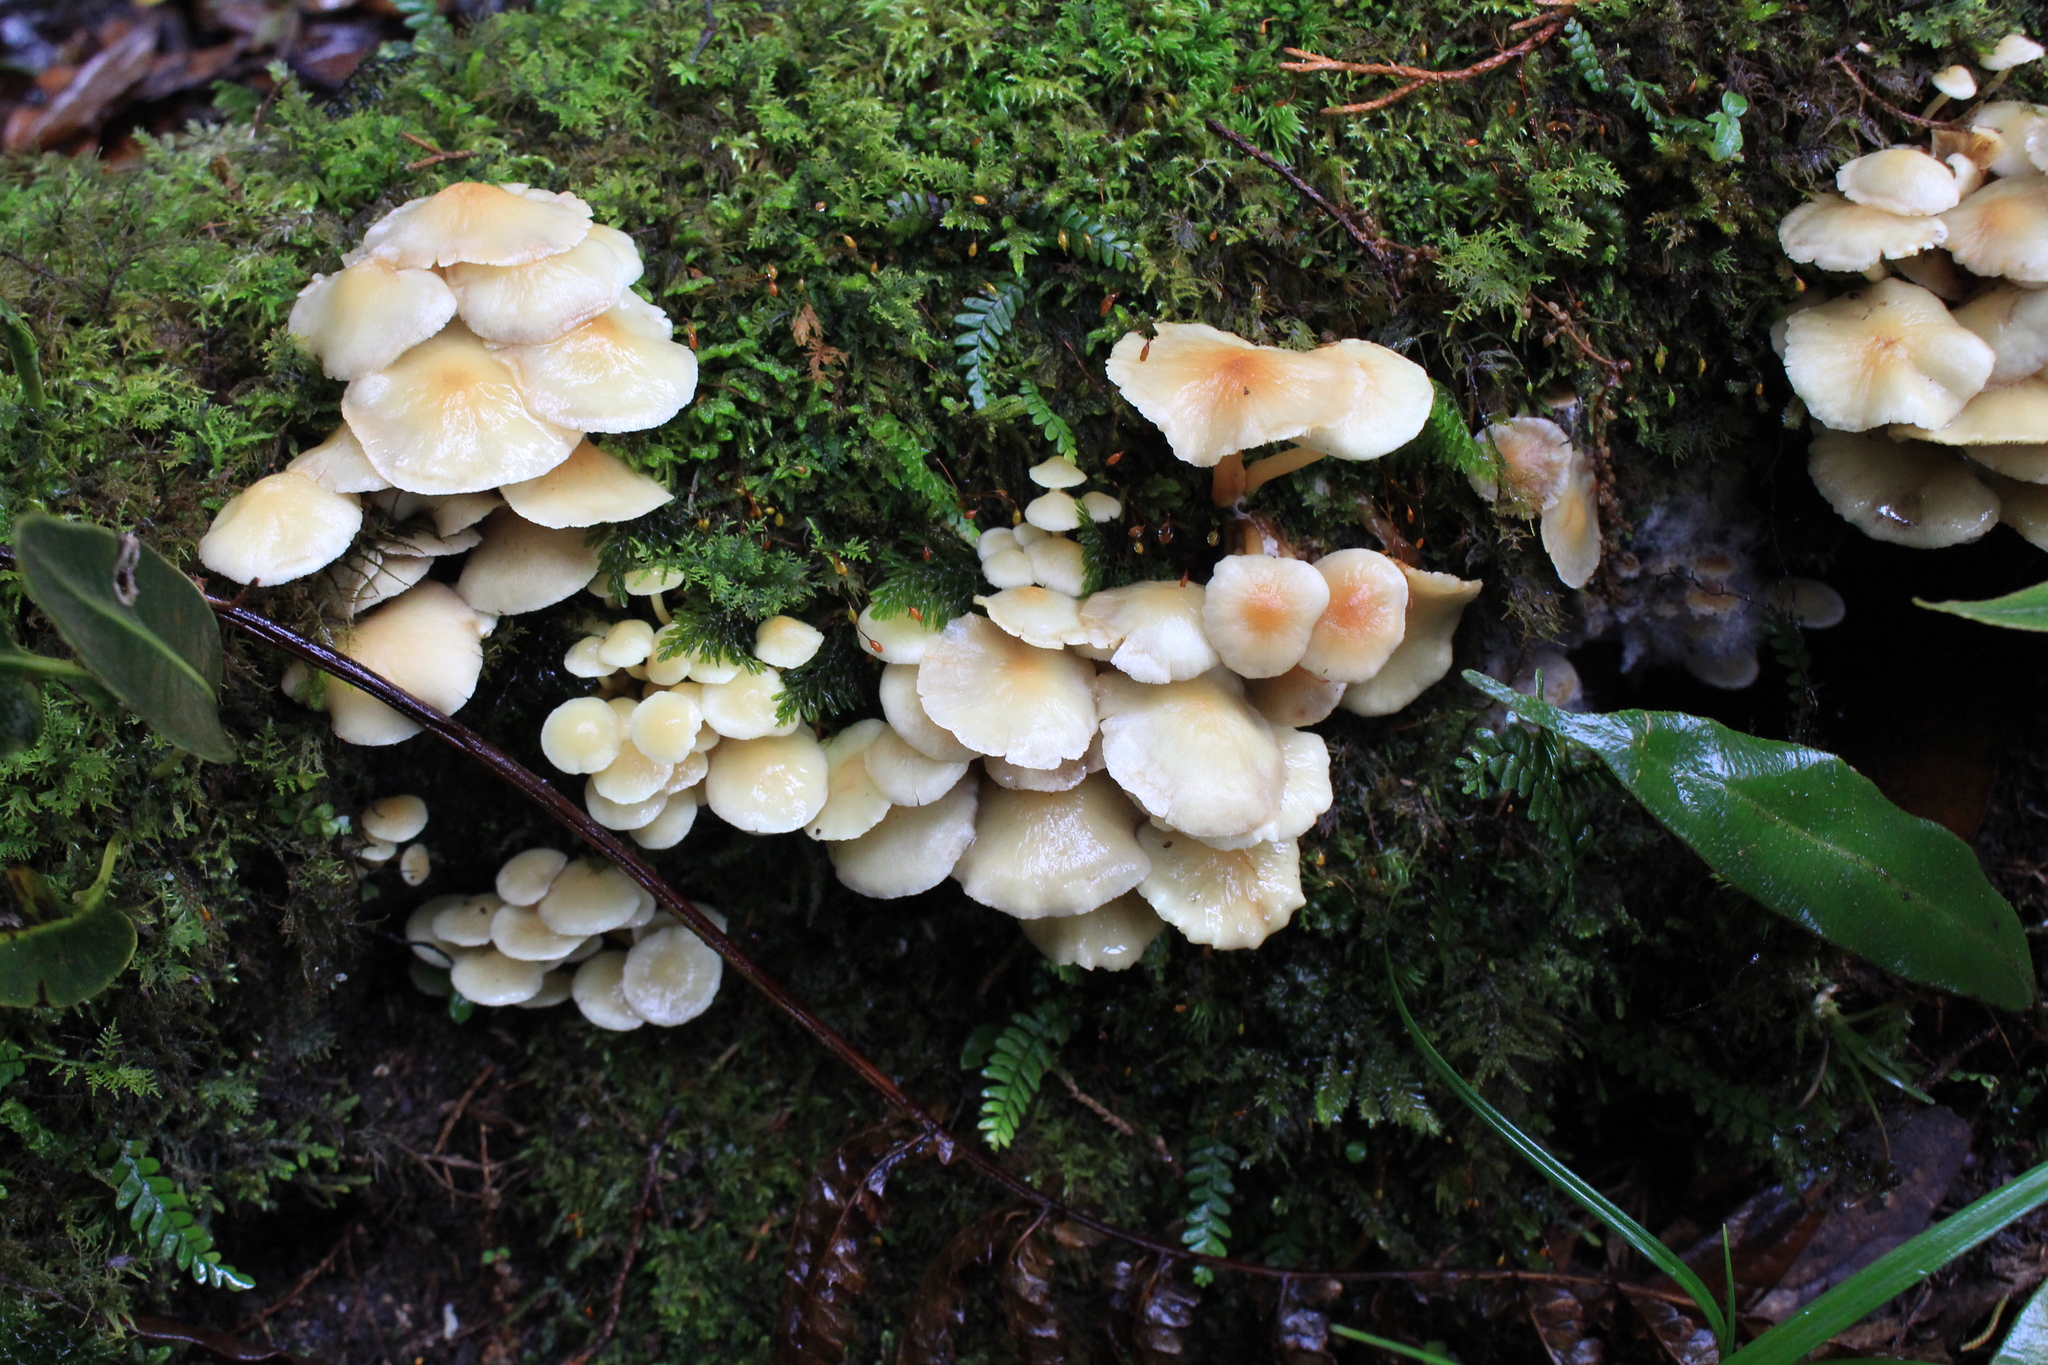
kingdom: Fungi
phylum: Basidiomycota
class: Agaricomycetes
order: Agaricales
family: Strophariaceae
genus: Hypholoma
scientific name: Hypholoma fasciculare
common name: Sulphur tuft
